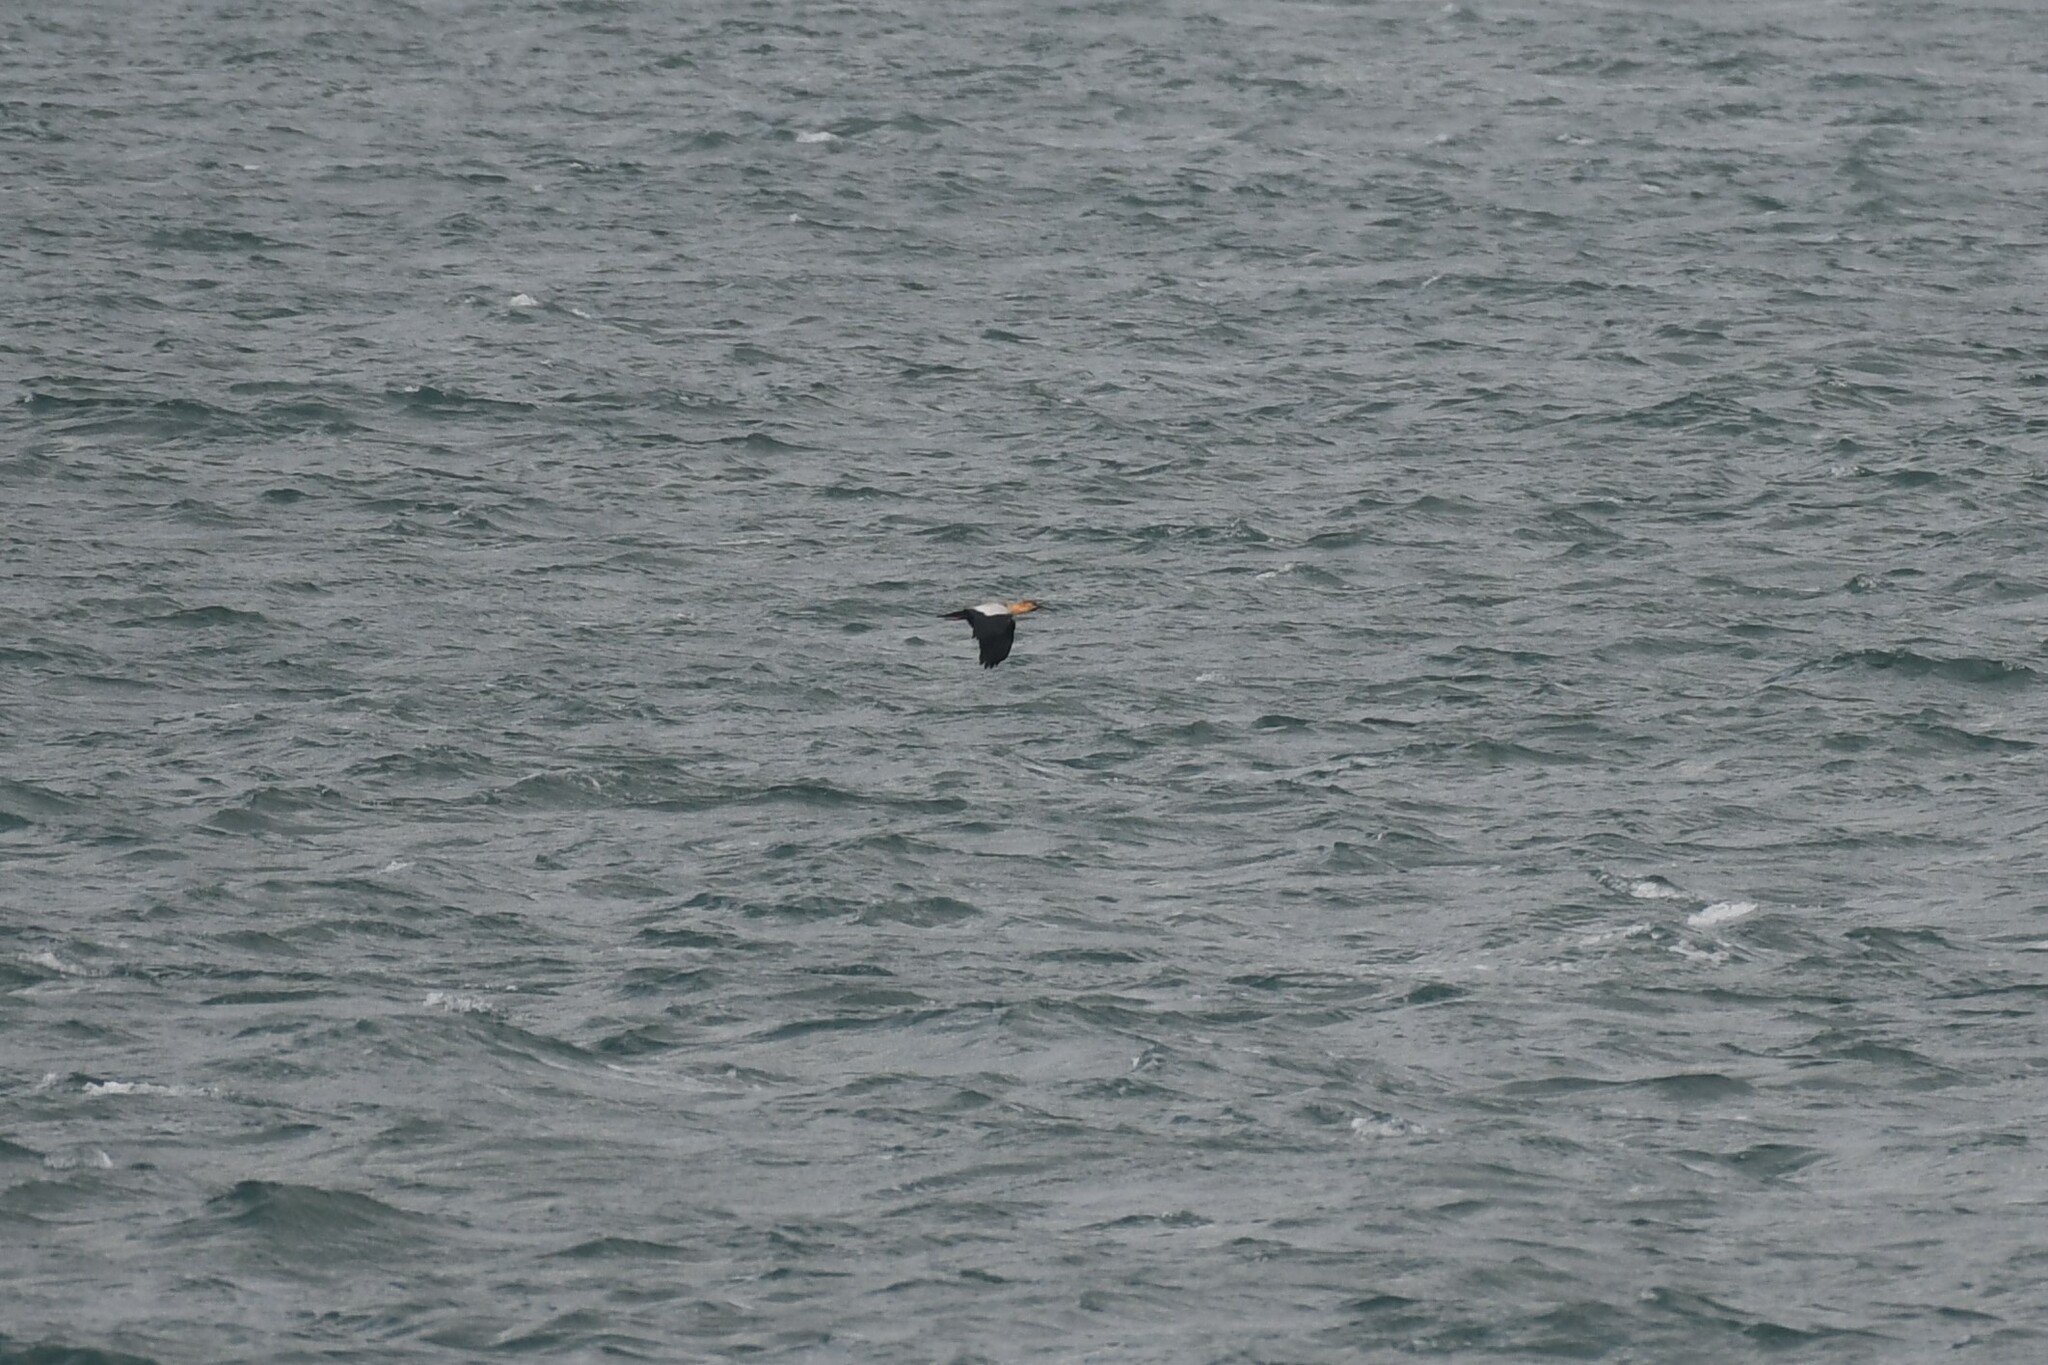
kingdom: Animalia
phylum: Chordata
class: Aves
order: Pelecaniformes
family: Threskiornithidae
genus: Theristicus
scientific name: Theristicus melanopis
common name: Black-faced ibis
